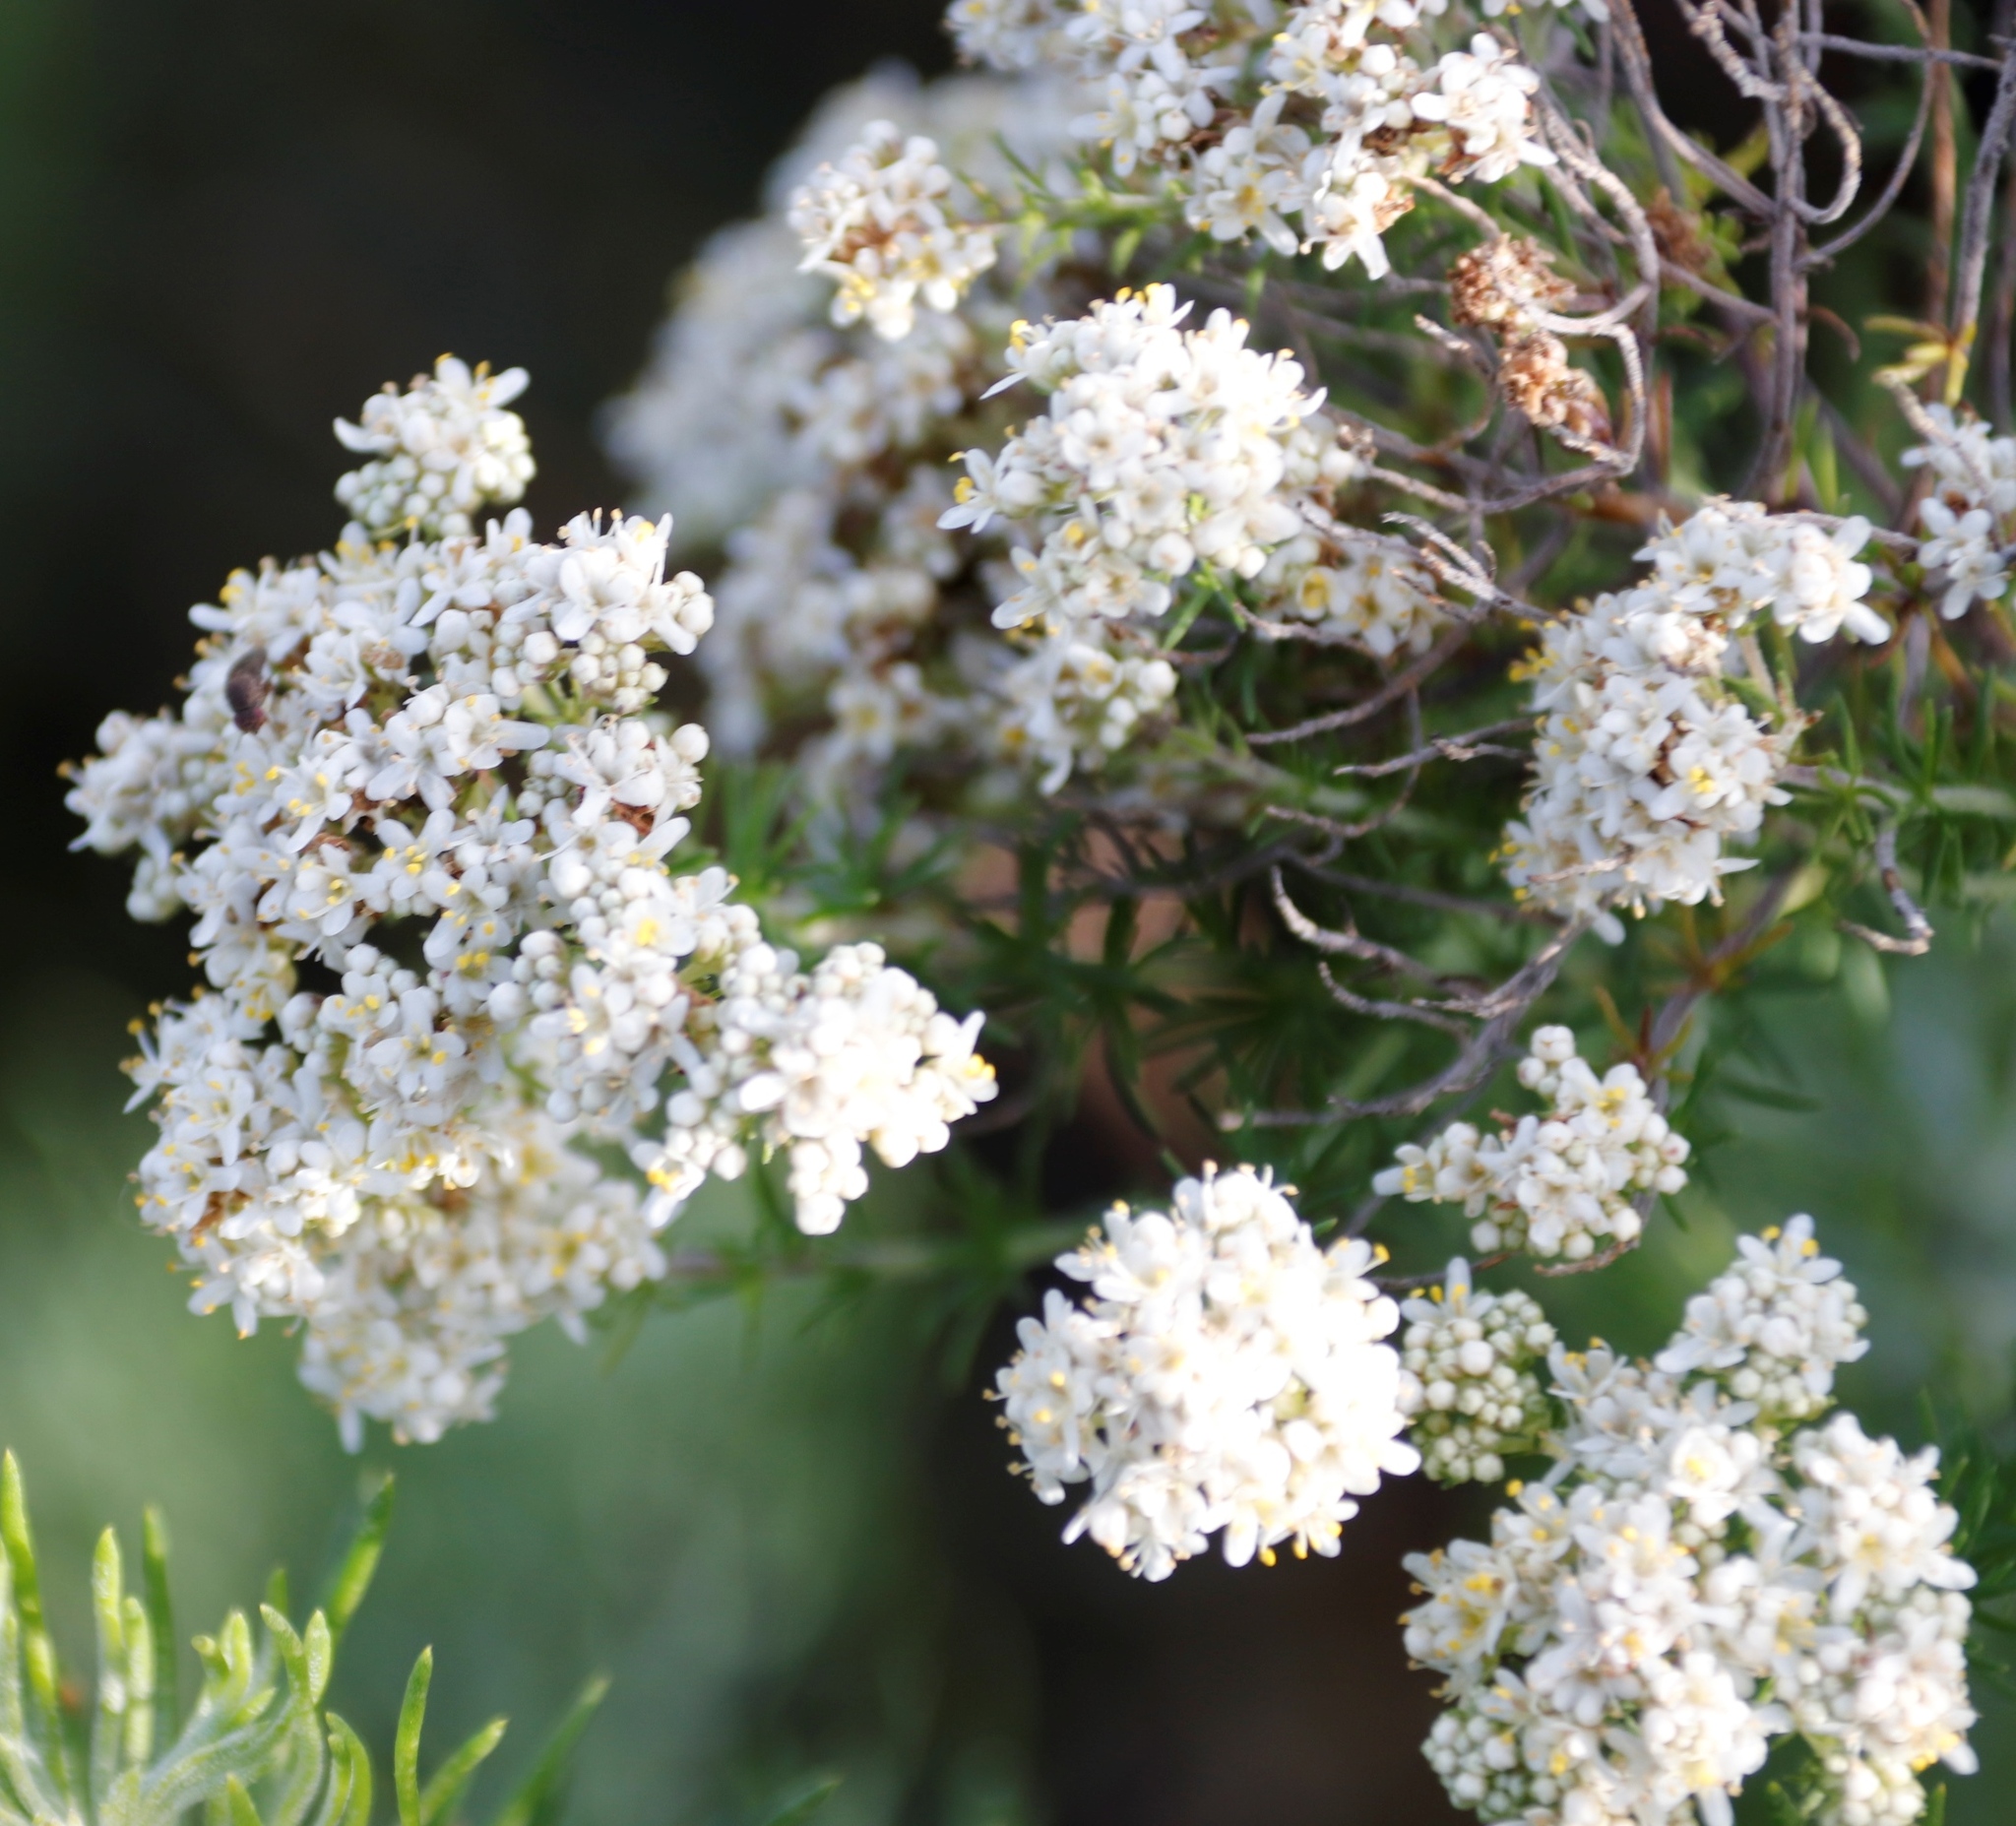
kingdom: Plantae
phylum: Tracheophyta
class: Magnoliopsida
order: Lamiales
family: Scrophulariaceae
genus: Selago
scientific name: Selago corymbosa
